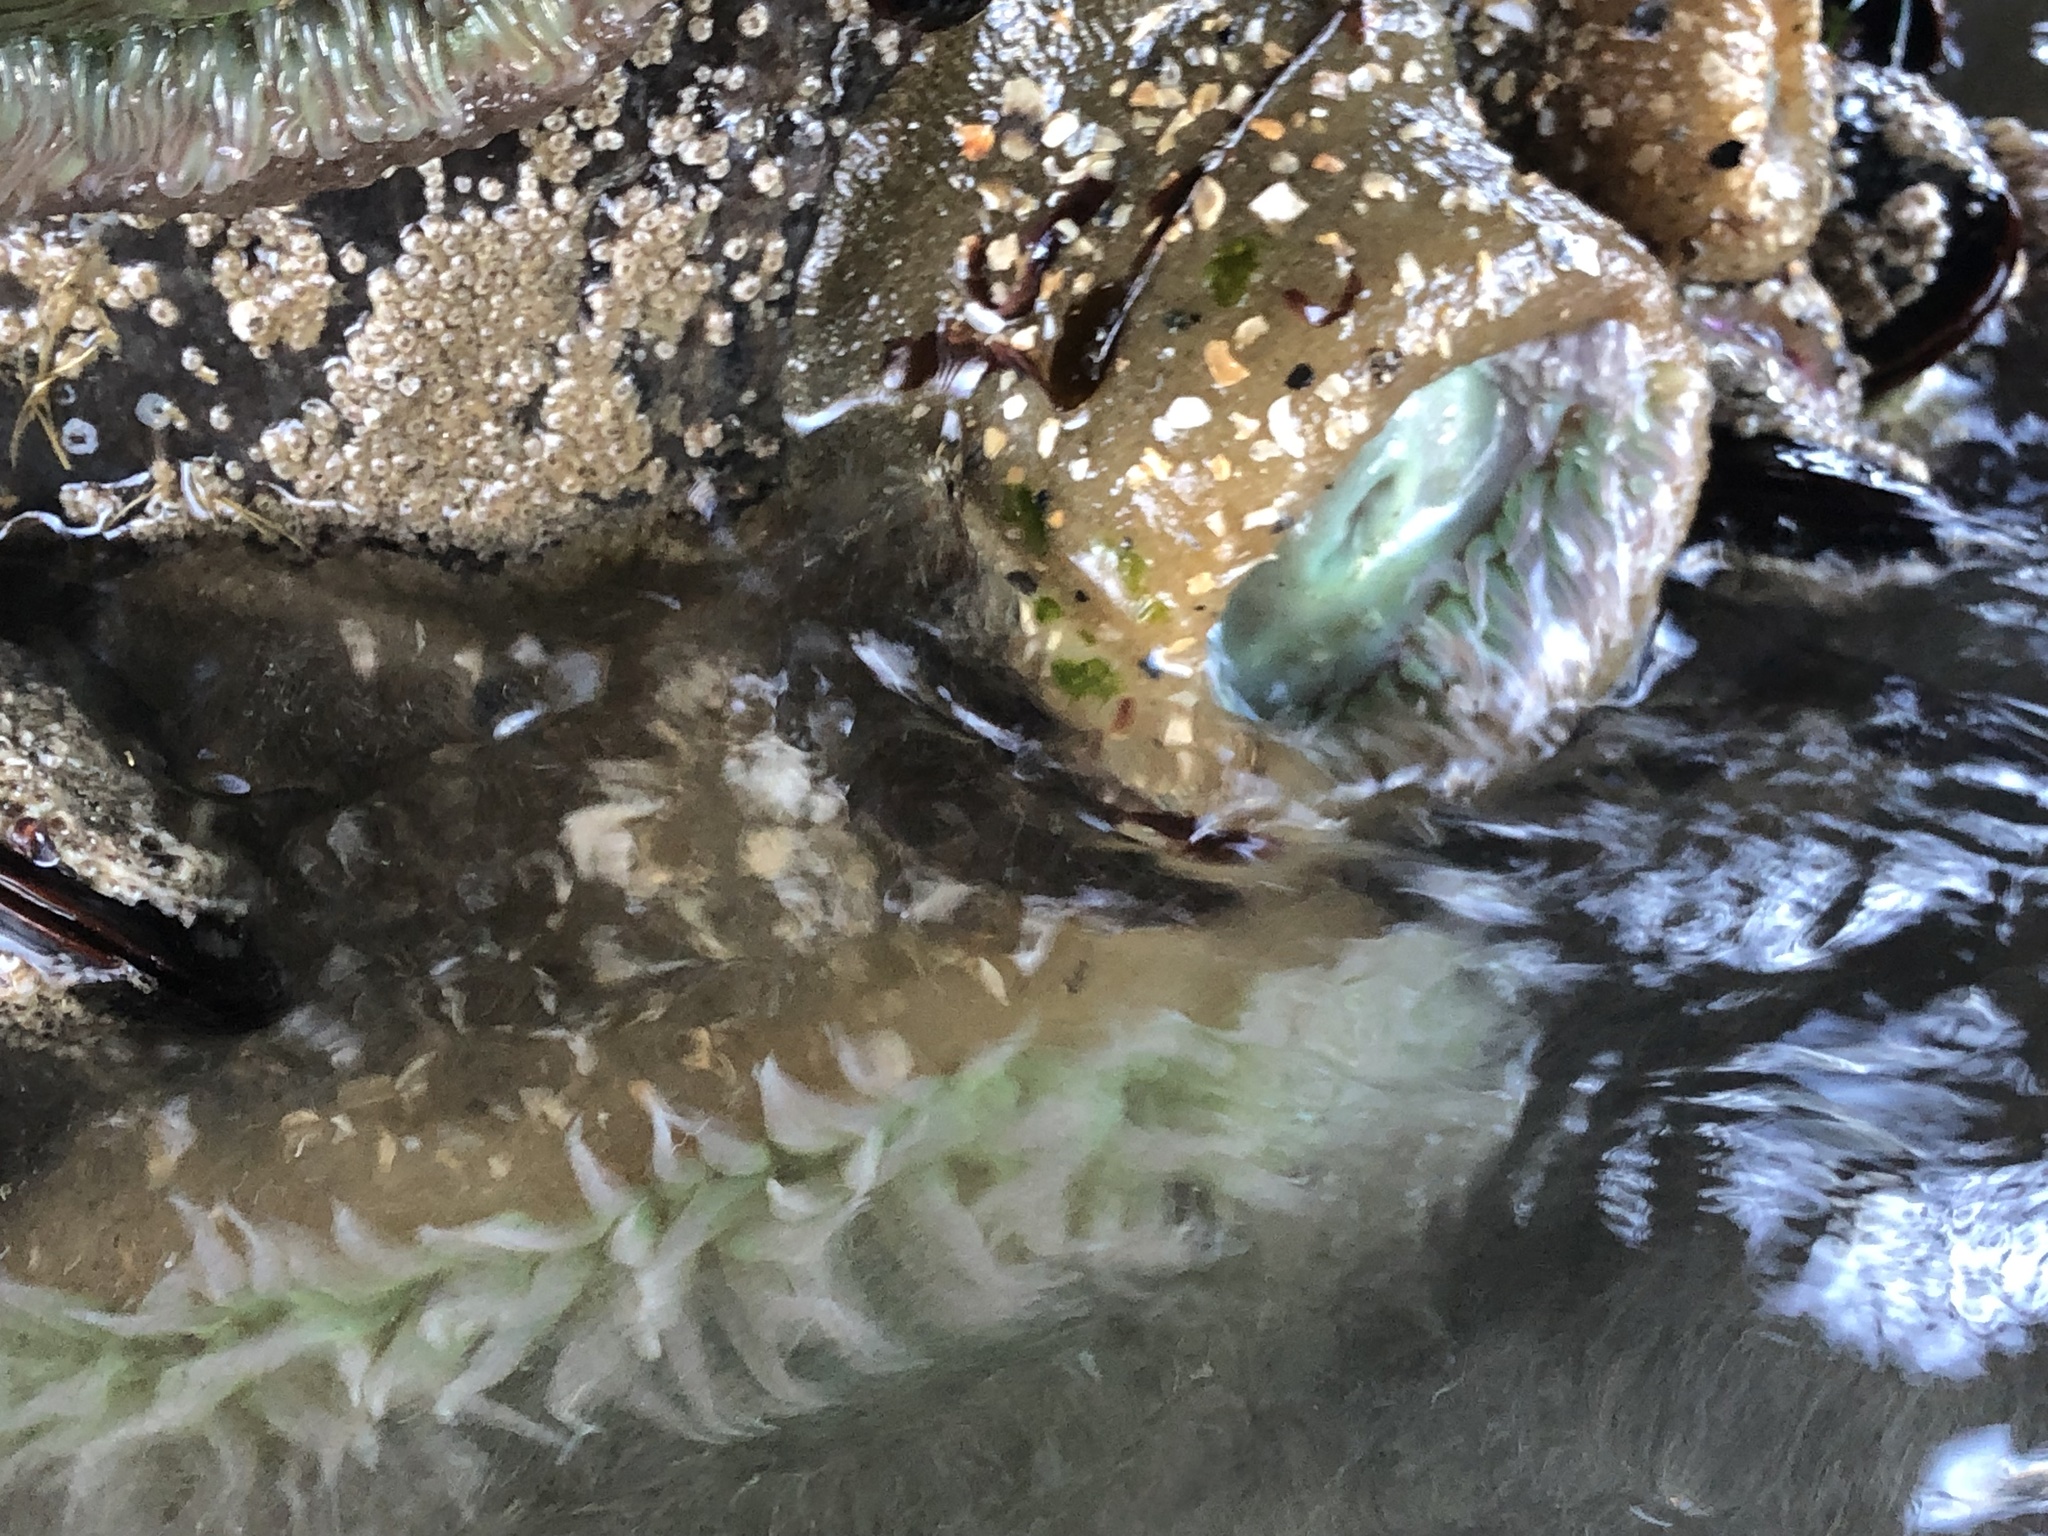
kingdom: Animalia
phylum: Cnidaria
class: Anthozoa
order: Actiniaria
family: Actiniidae
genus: Anthopleura
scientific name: Anthopleura xanthogrammica
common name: Giant green anemone
